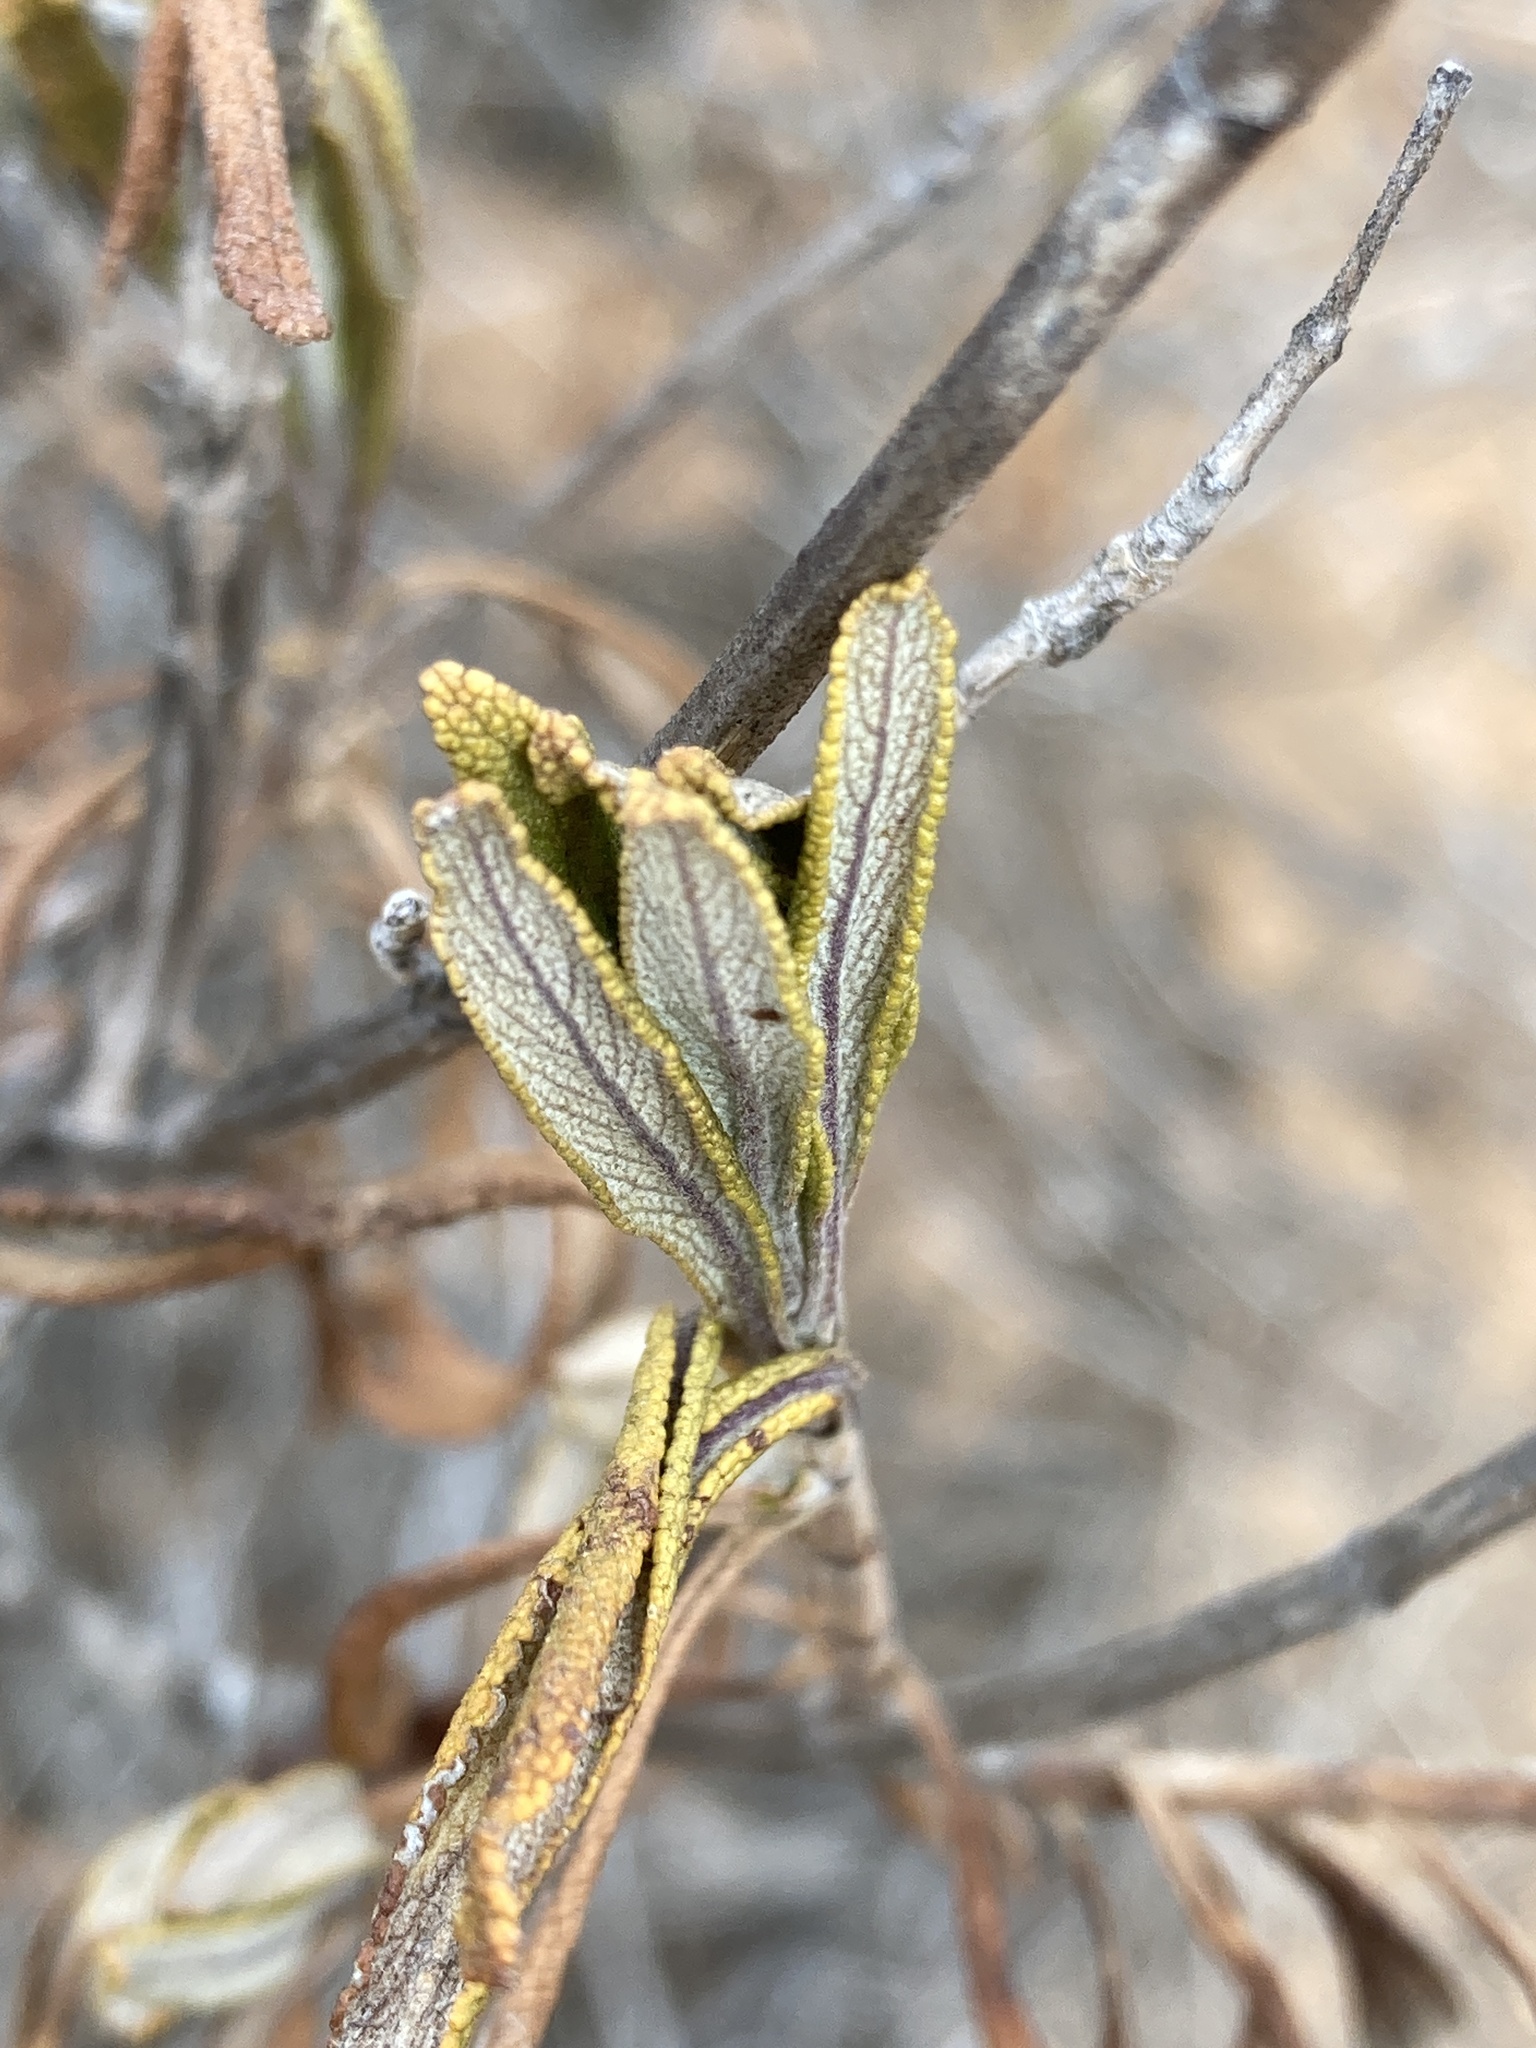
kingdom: Plantae
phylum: Tracheophyta
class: Magnoliopsida
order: Lamiales
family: Lamiaceae
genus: Salvia
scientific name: Salvia mellifera
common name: Black sage
